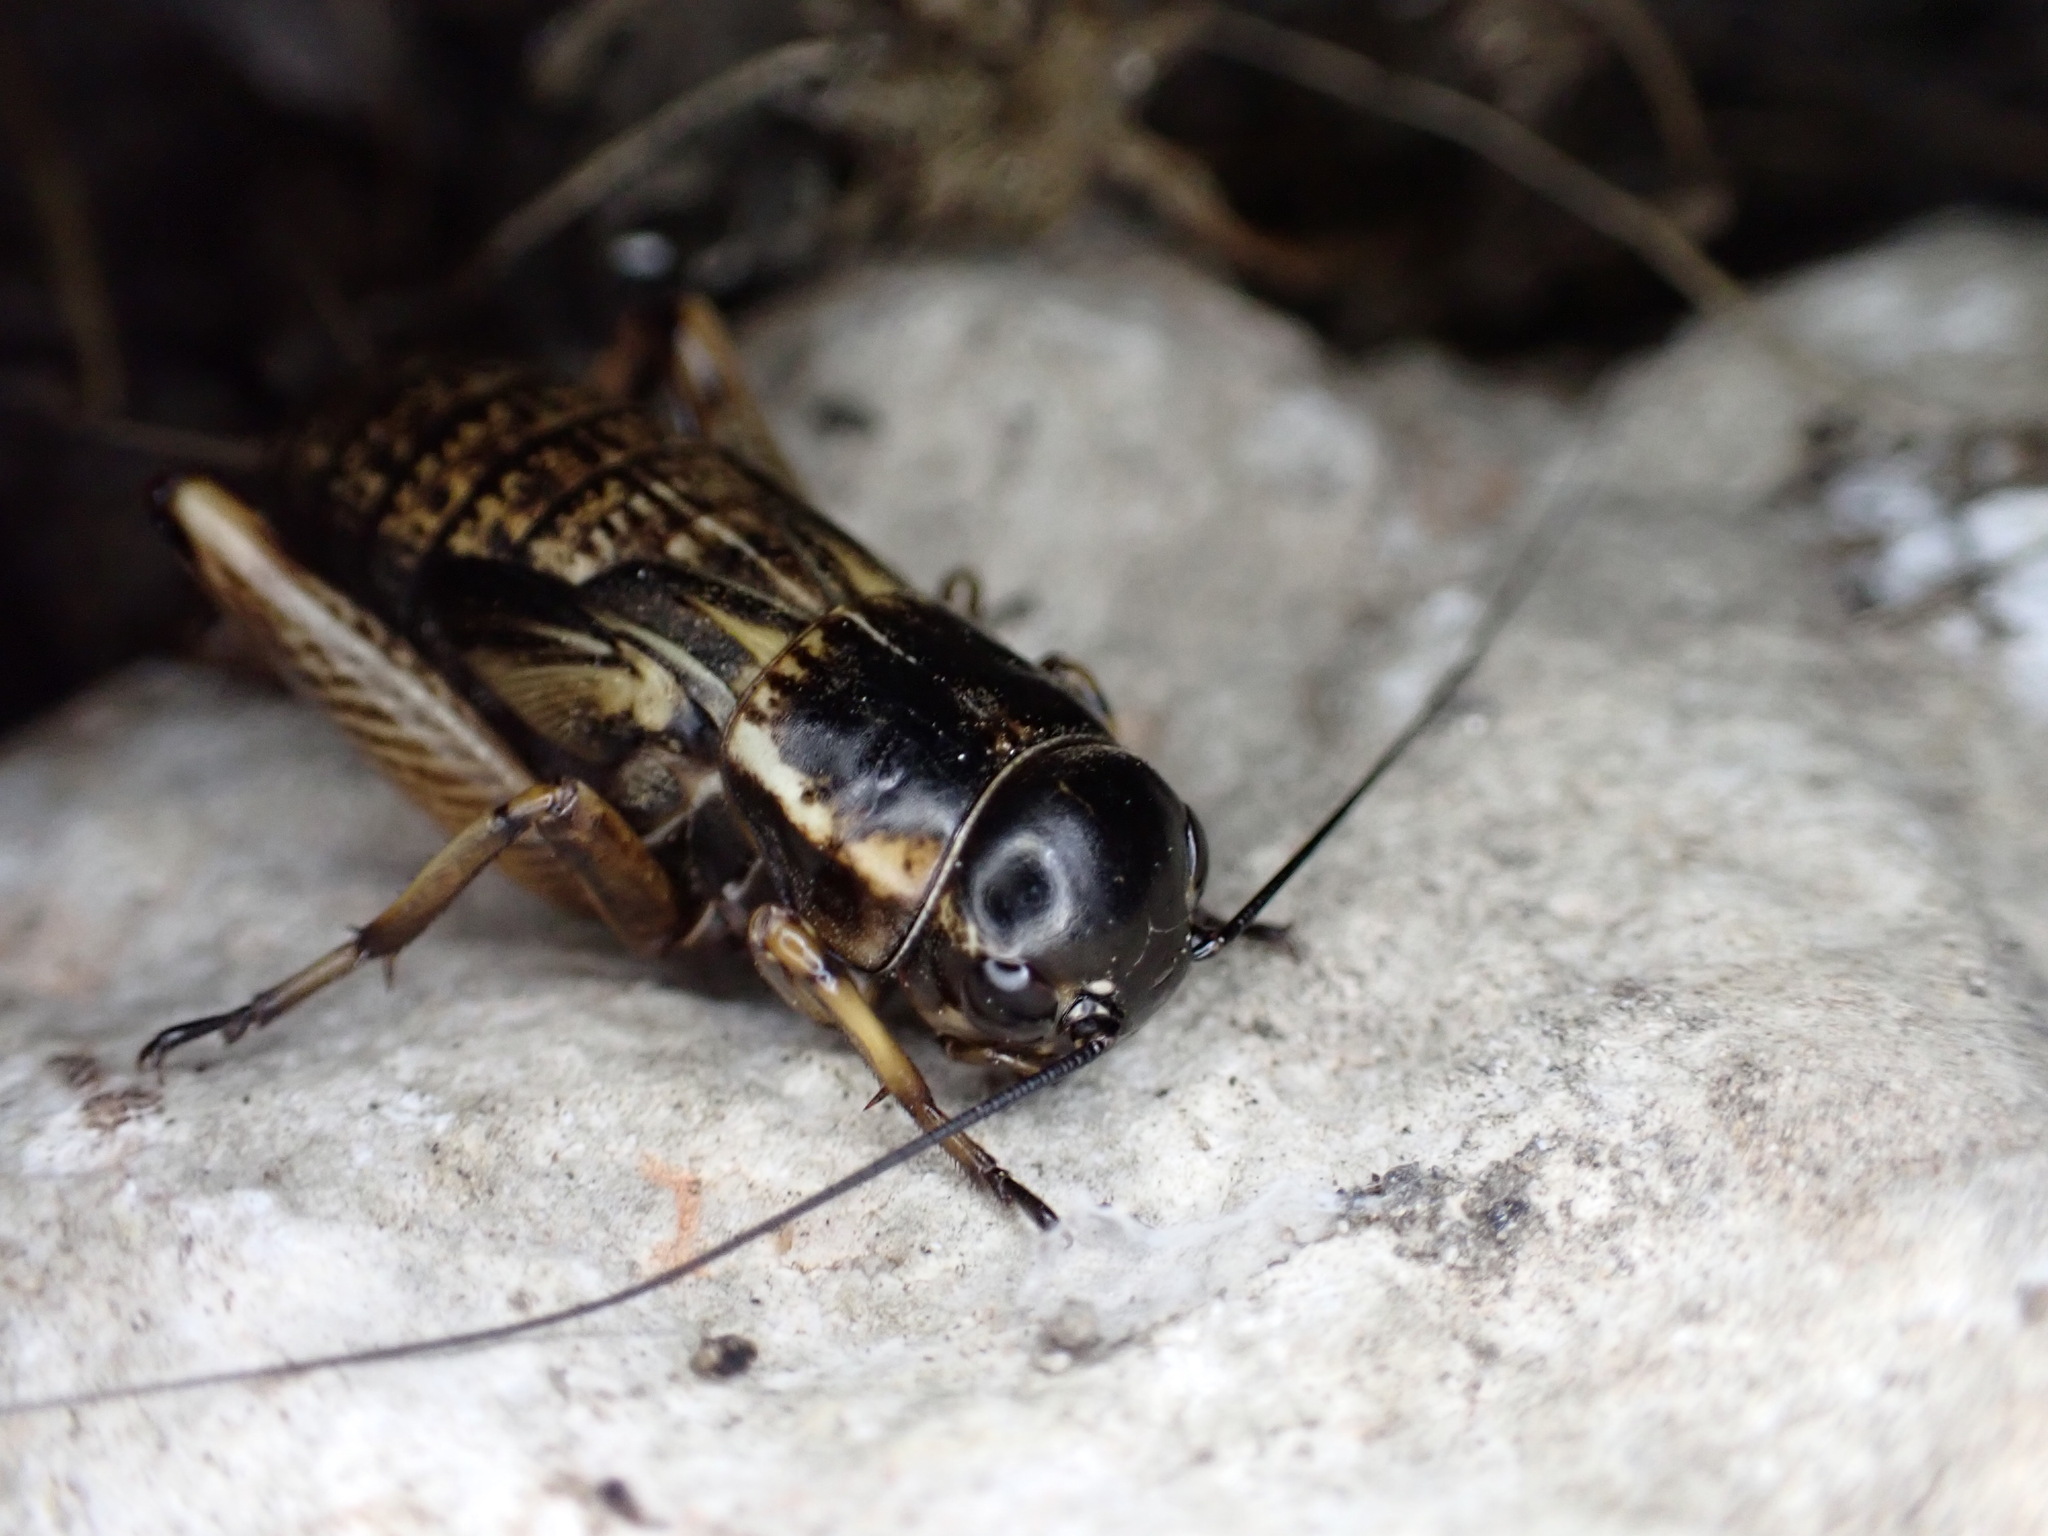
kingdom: Animalia
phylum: Arthropoda
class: Insecta
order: Orthoptera
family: Gryllidae
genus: Gryllus
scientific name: Gryllus bimaculatus
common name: Two-spotted cricket
